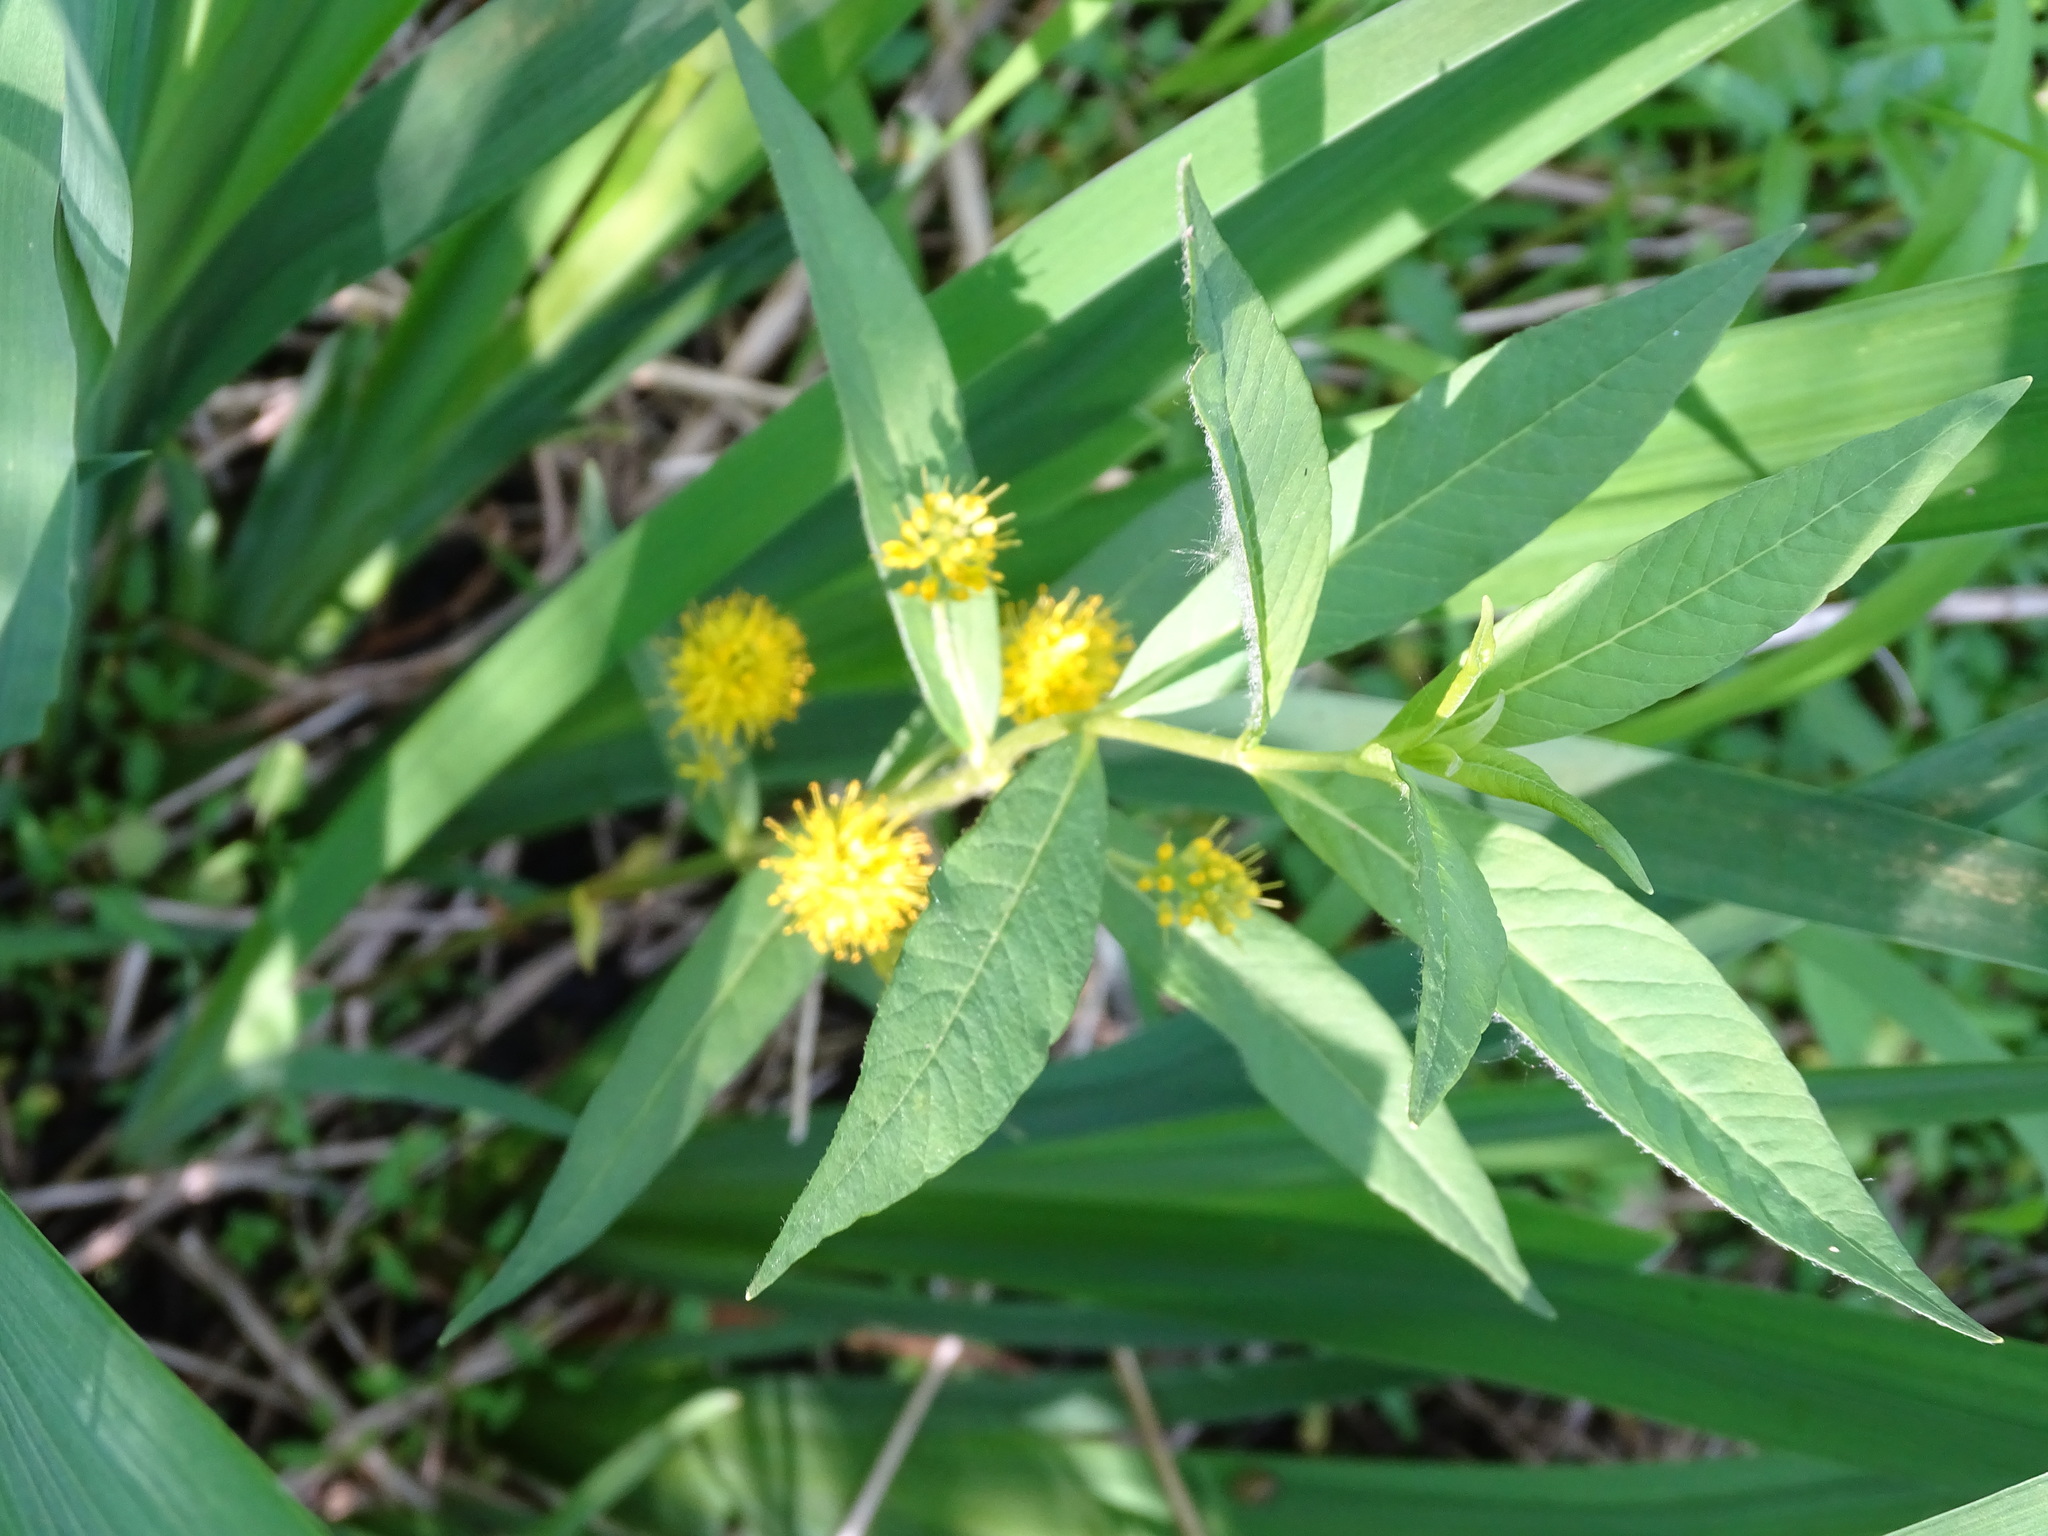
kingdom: Plantae
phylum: Tracheophyta
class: Magnoliopsida
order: Ericales
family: Primulaceae
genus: Lysimachia
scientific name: Lysimachia thyrsiflora
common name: Tufted loosestrife
